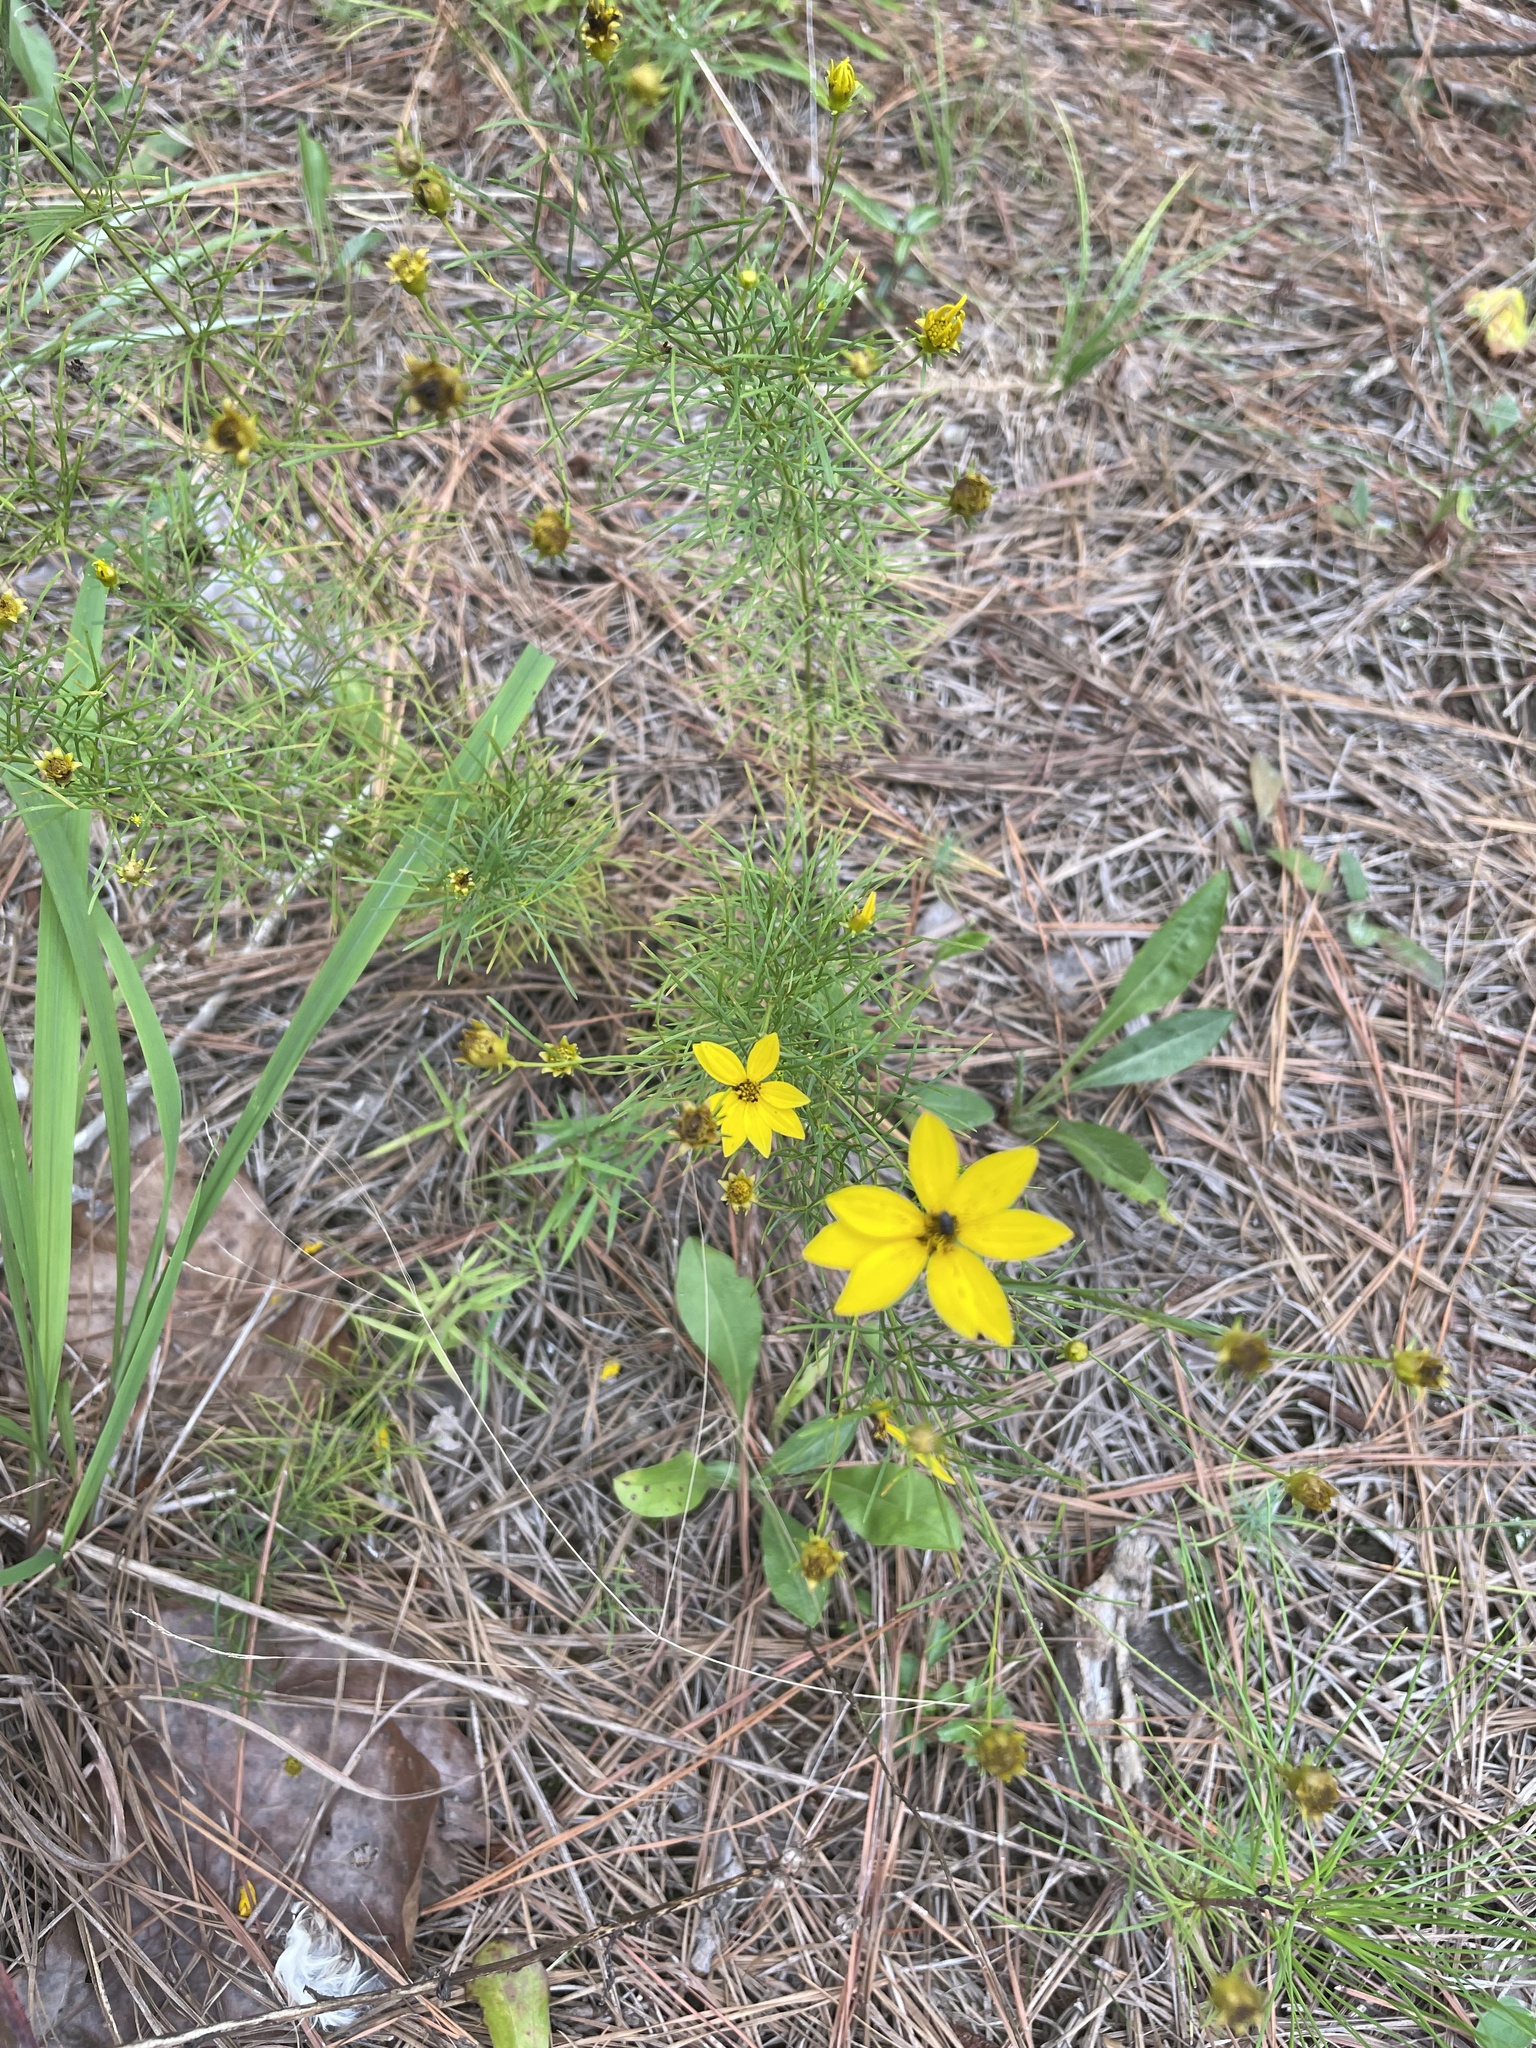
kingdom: Plantae
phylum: Tracheophyta
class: Magnoliopsida
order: Asterales
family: Asteraceae
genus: Coreopsis
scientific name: Coreopsis verticillata
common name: Whorled tickseed
